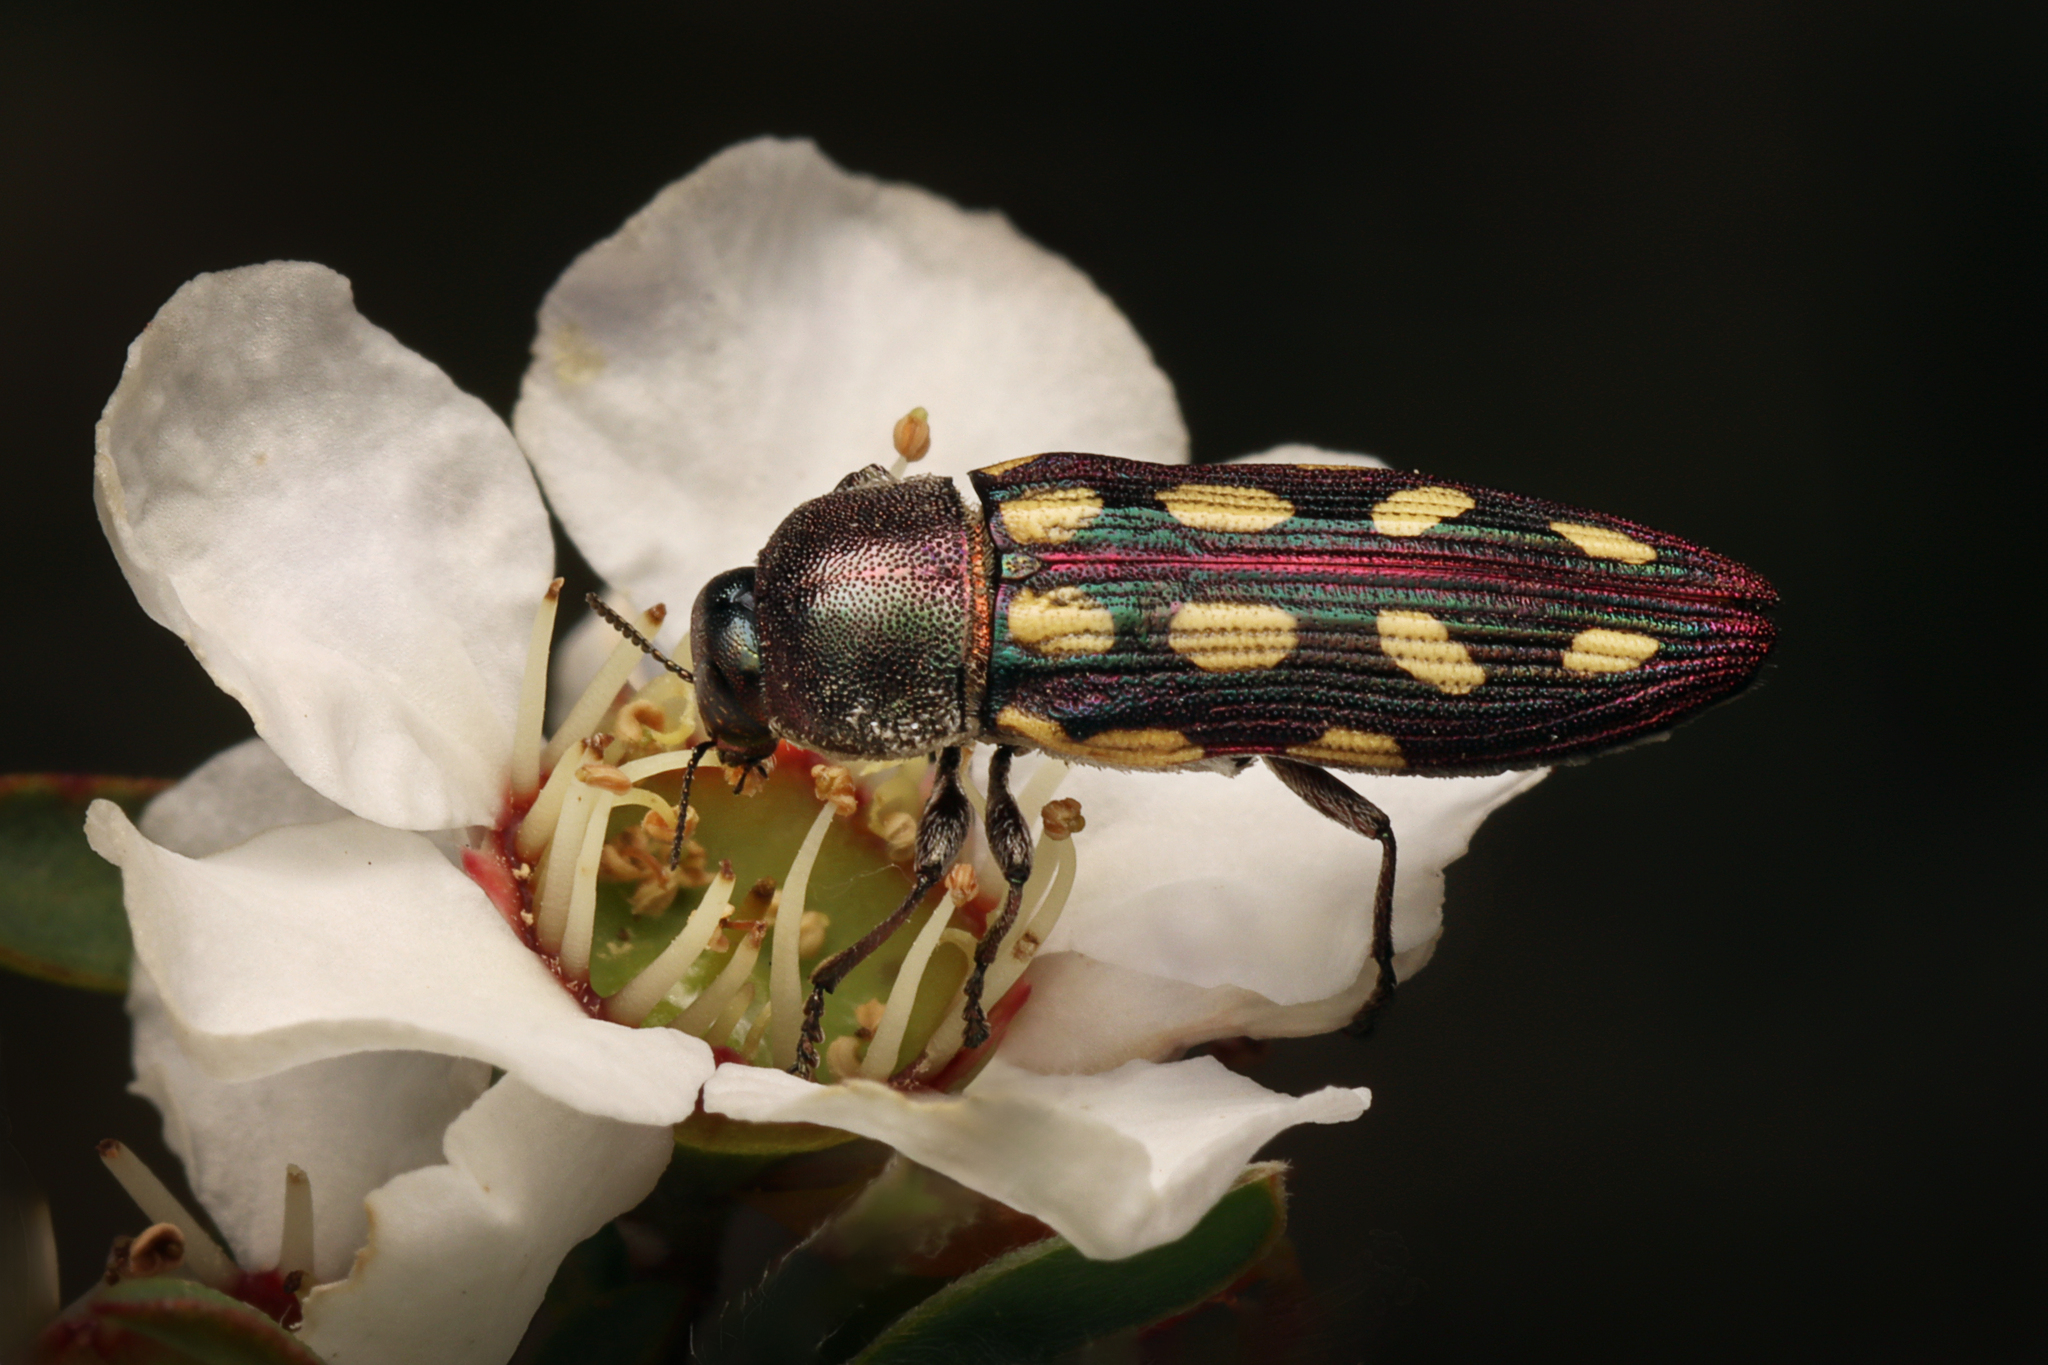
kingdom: Animalia
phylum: Arthropoda
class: Insecta
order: Coleoptera
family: Buprestidae
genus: Castiarina
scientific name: Castiarina parallela
